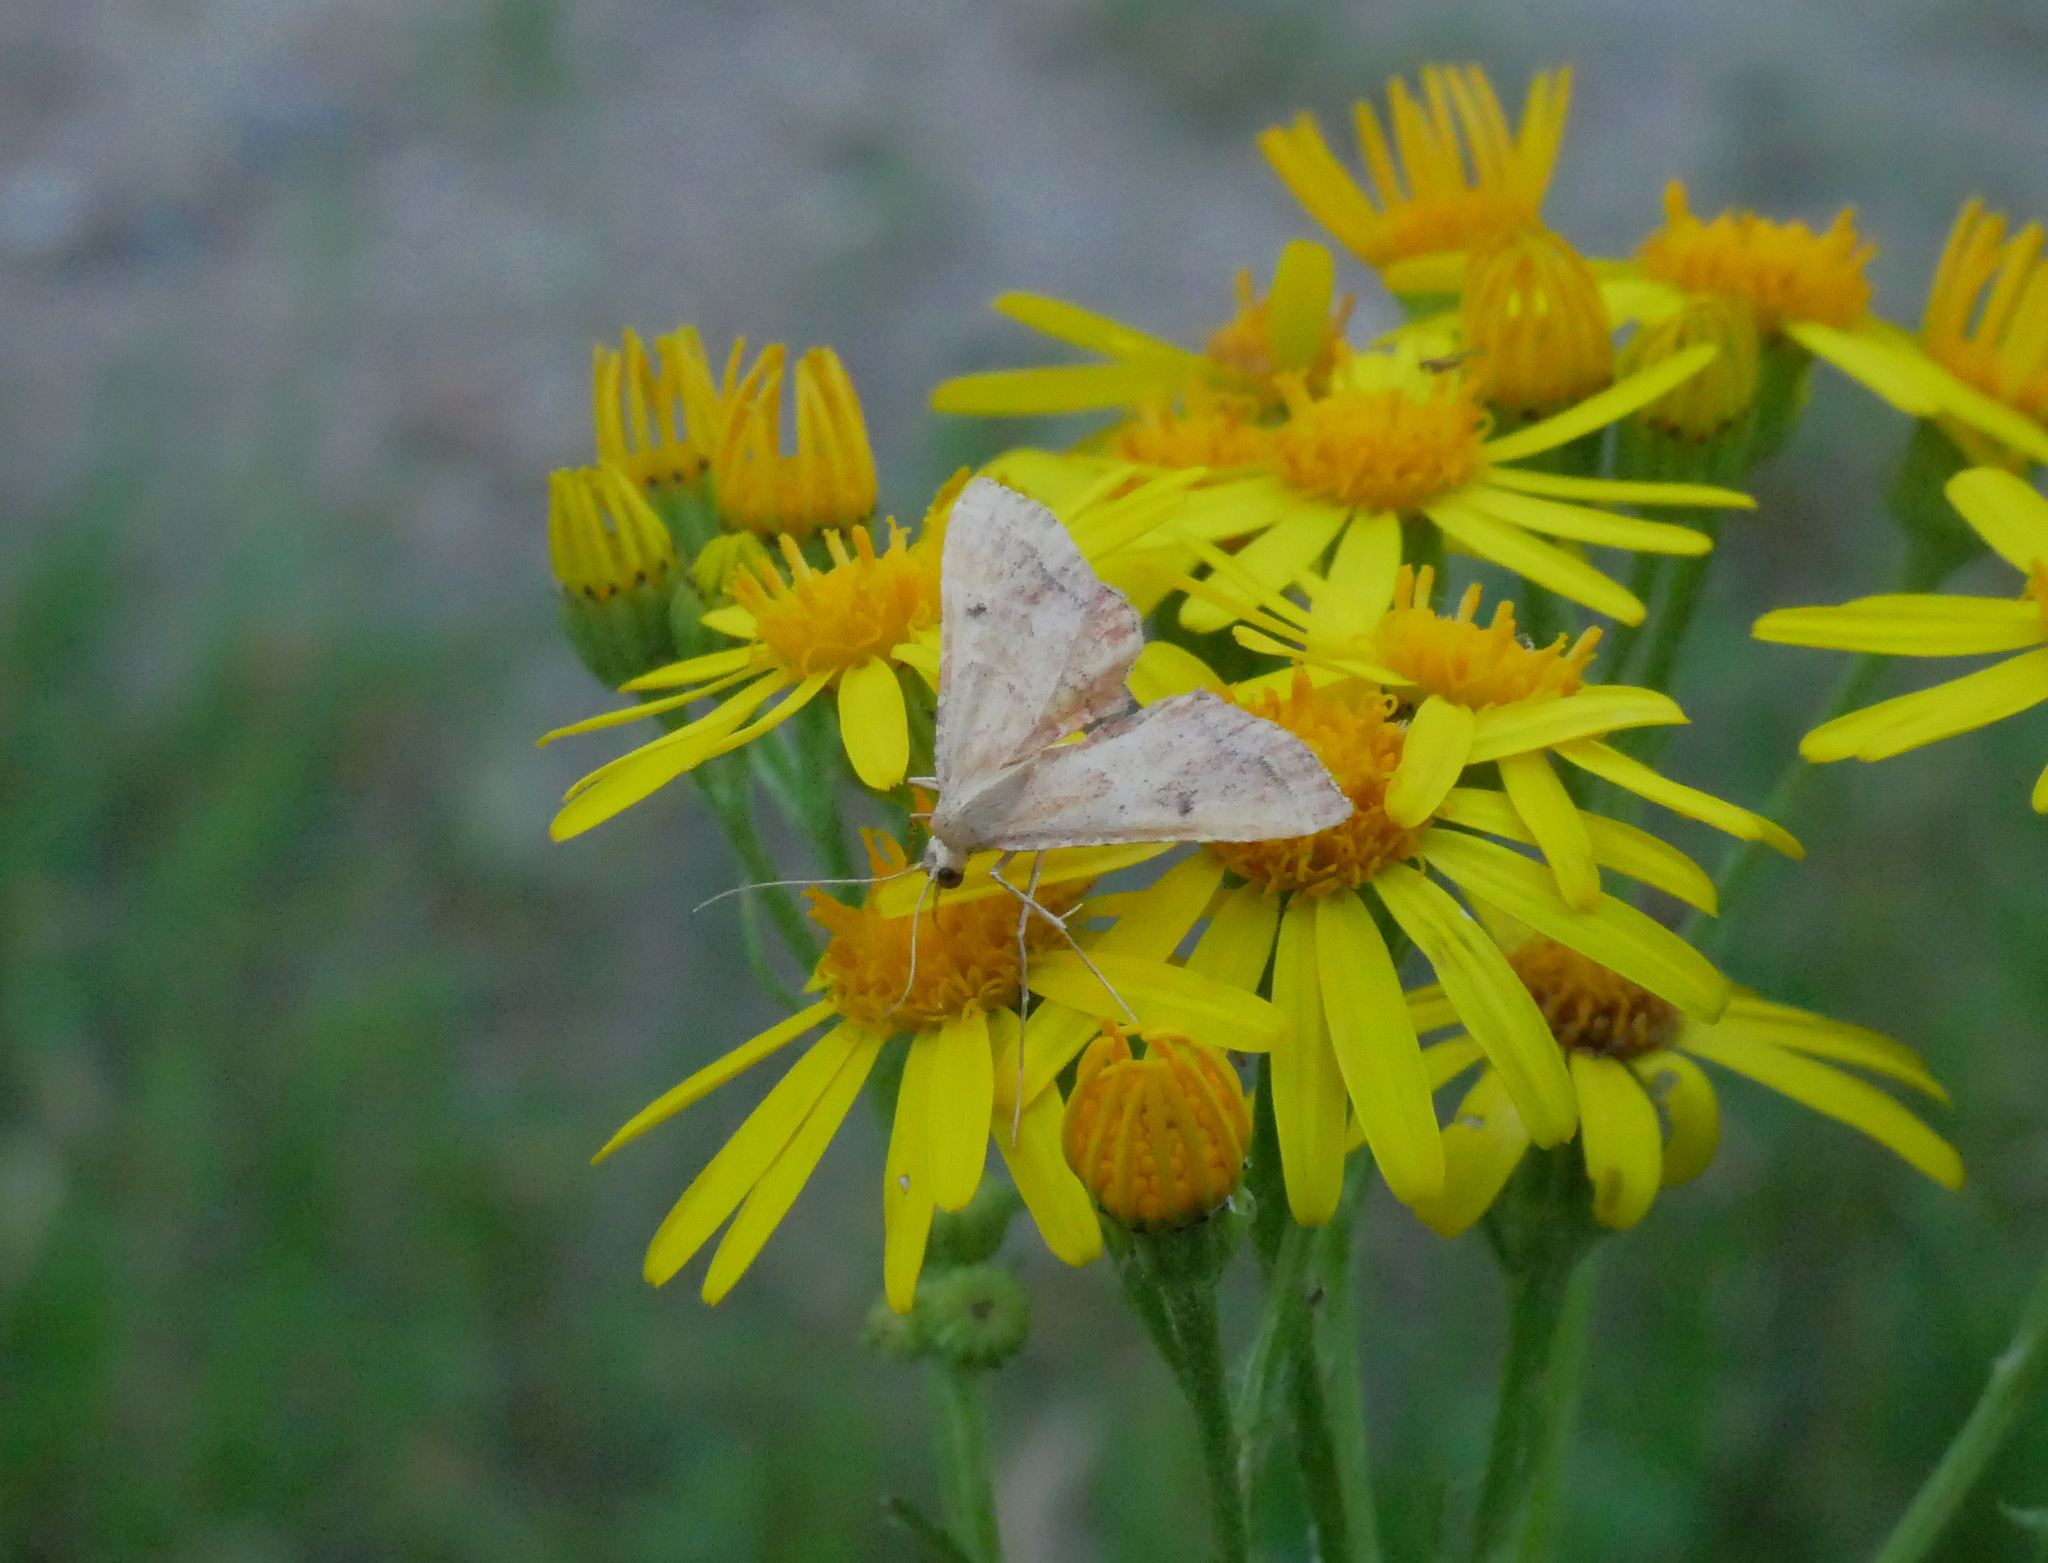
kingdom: Animalia
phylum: Arthropoda
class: Insecta
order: Lepidoptera
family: Pyralidae
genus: Endotricha
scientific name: Endotricha flammealis
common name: Rosy tabby
